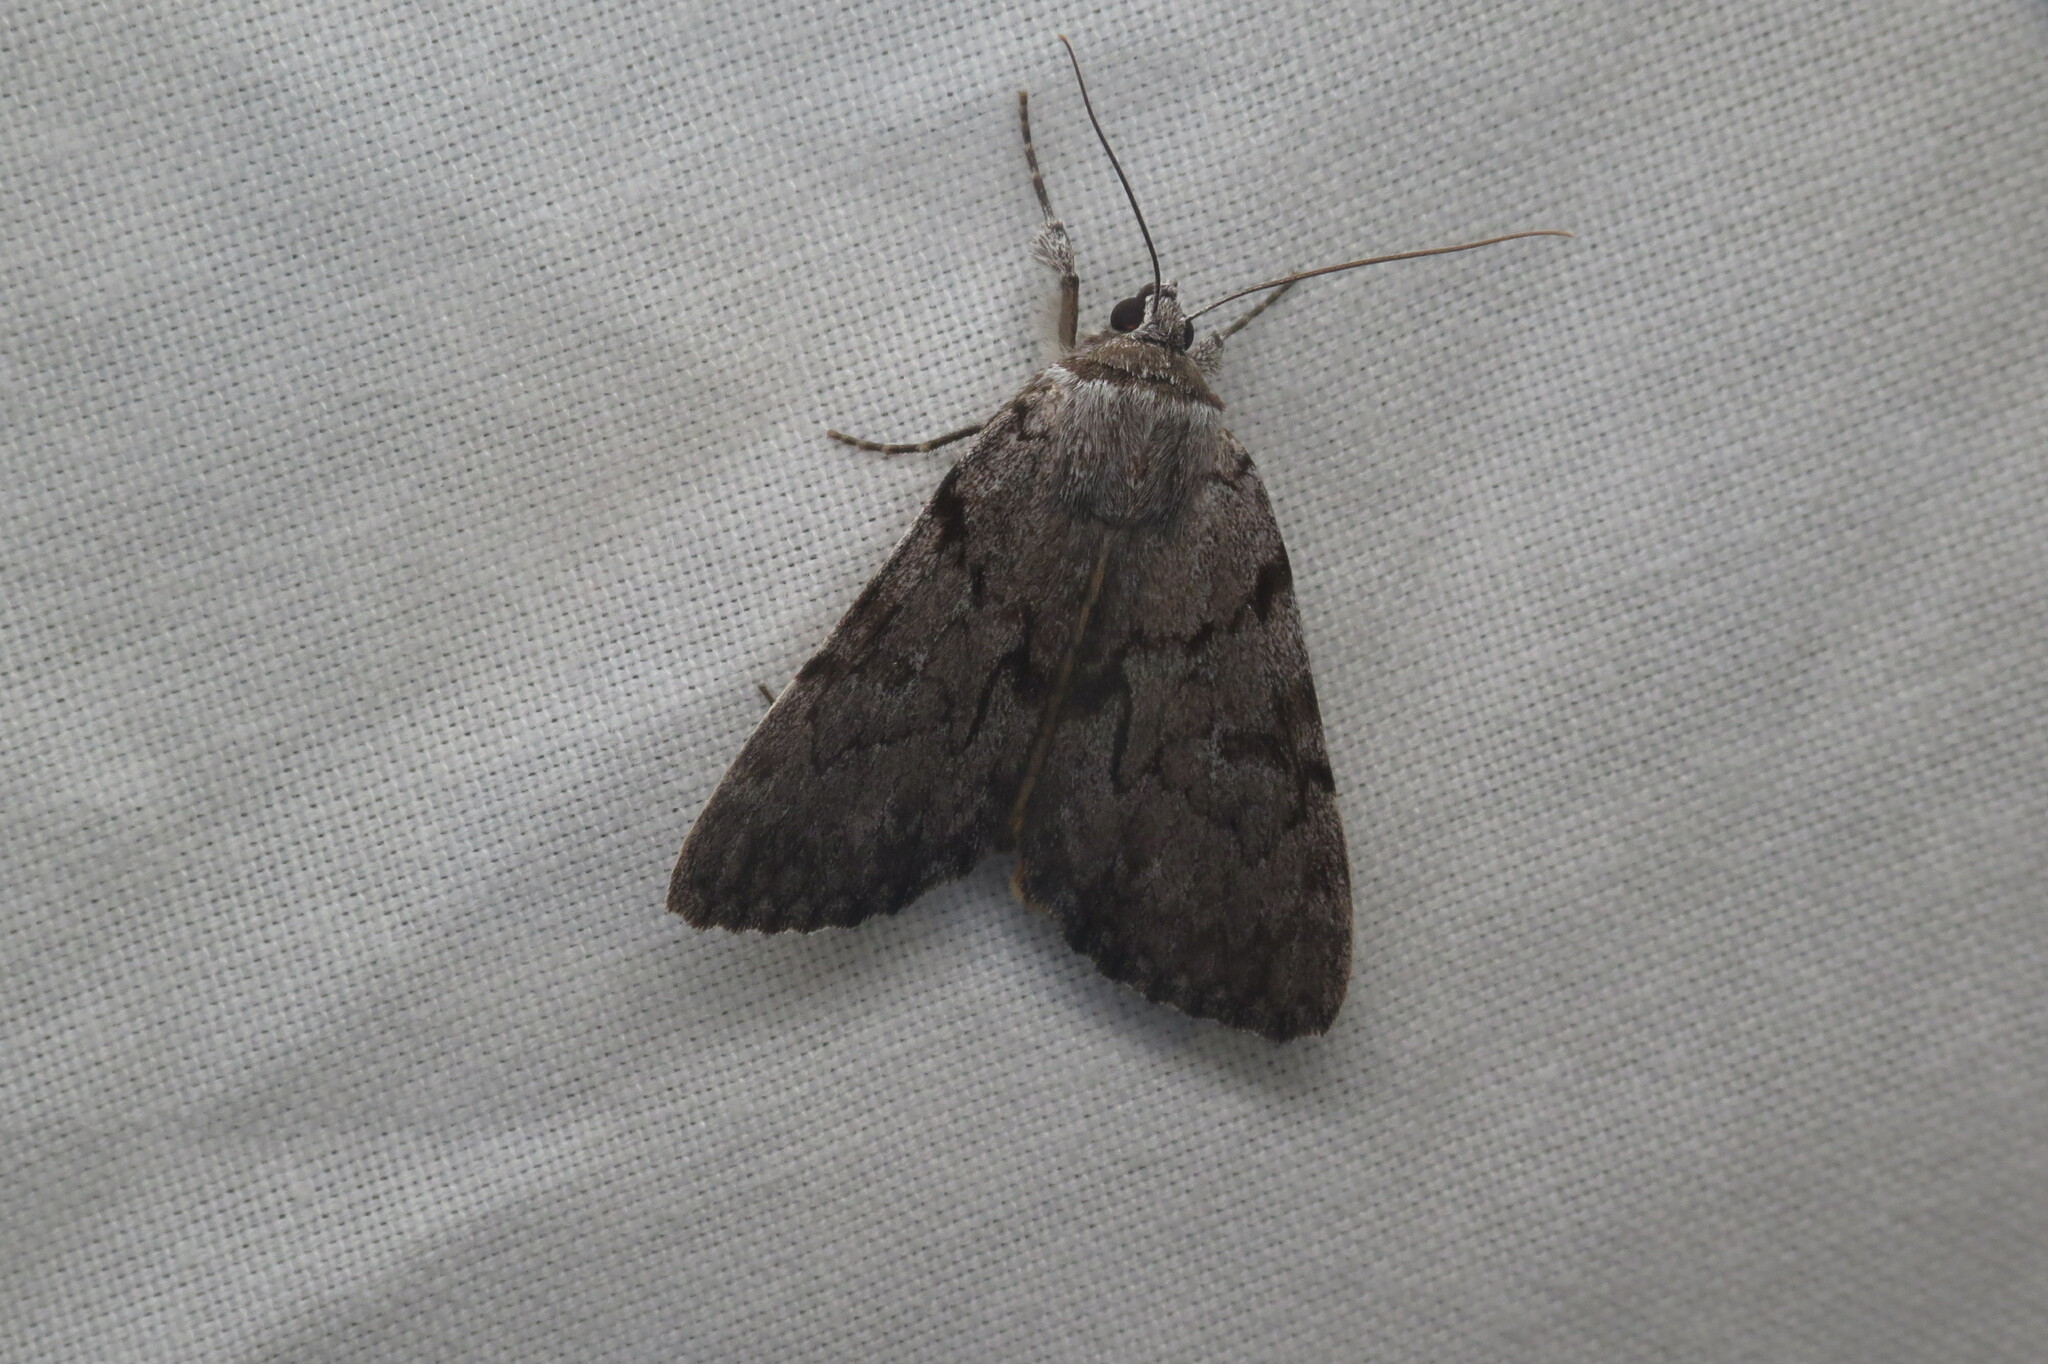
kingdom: Animalia
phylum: Arthropoda
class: Insecta
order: Lepidoptera
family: Erebidae
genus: Catocala
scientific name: Catocala sordida
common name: Sordid underwing
